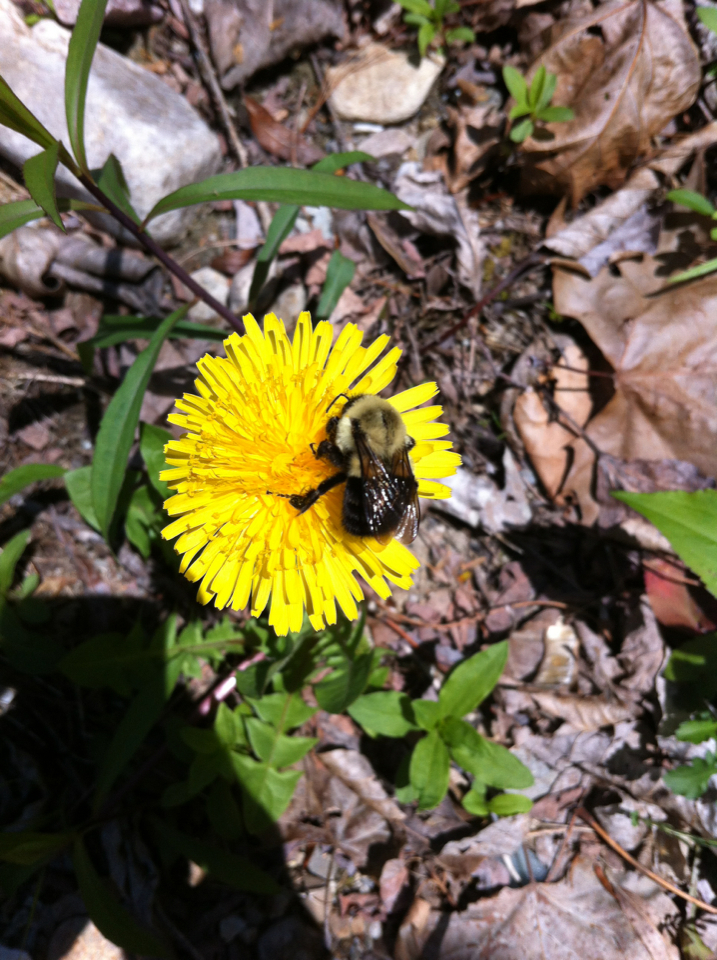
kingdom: Animalia
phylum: Arthropoda
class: Insecta
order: Hymenoptera
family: Apidae
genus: Bombus
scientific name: Bombus impatiens
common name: Common eastern bumble bee
